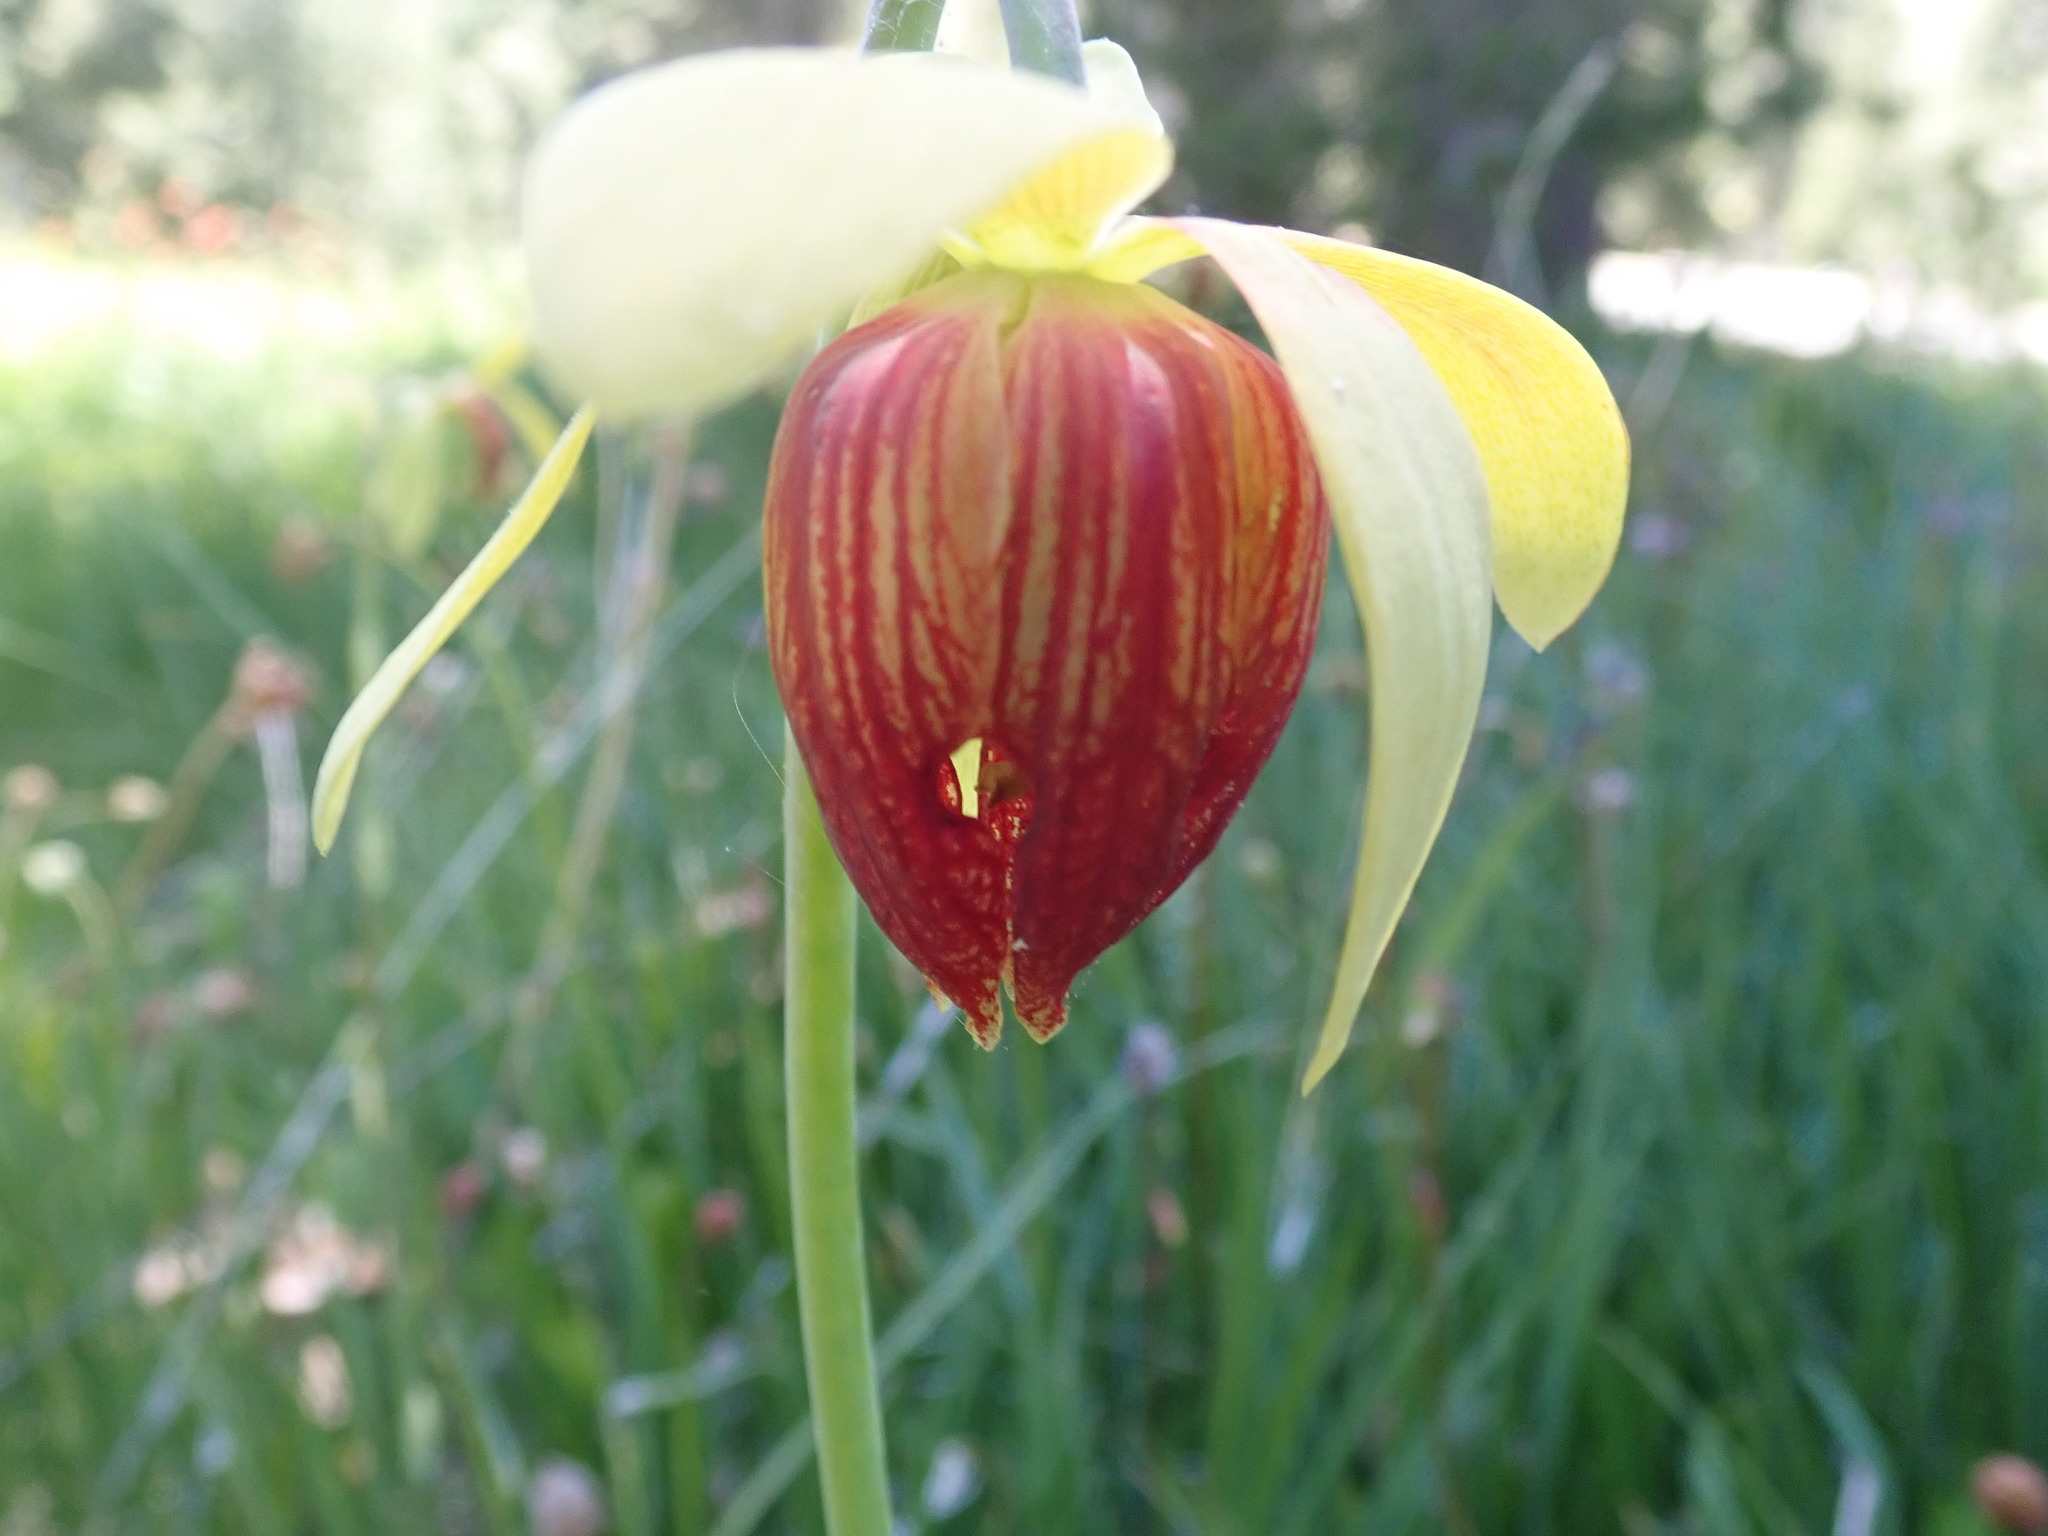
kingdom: Plantae
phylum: Tracheophyta
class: Magnoliopsida
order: Ericales
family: Sarraceniaceae
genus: Darlingtonia
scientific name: Darlingtonia californica
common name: California pitcher plant
